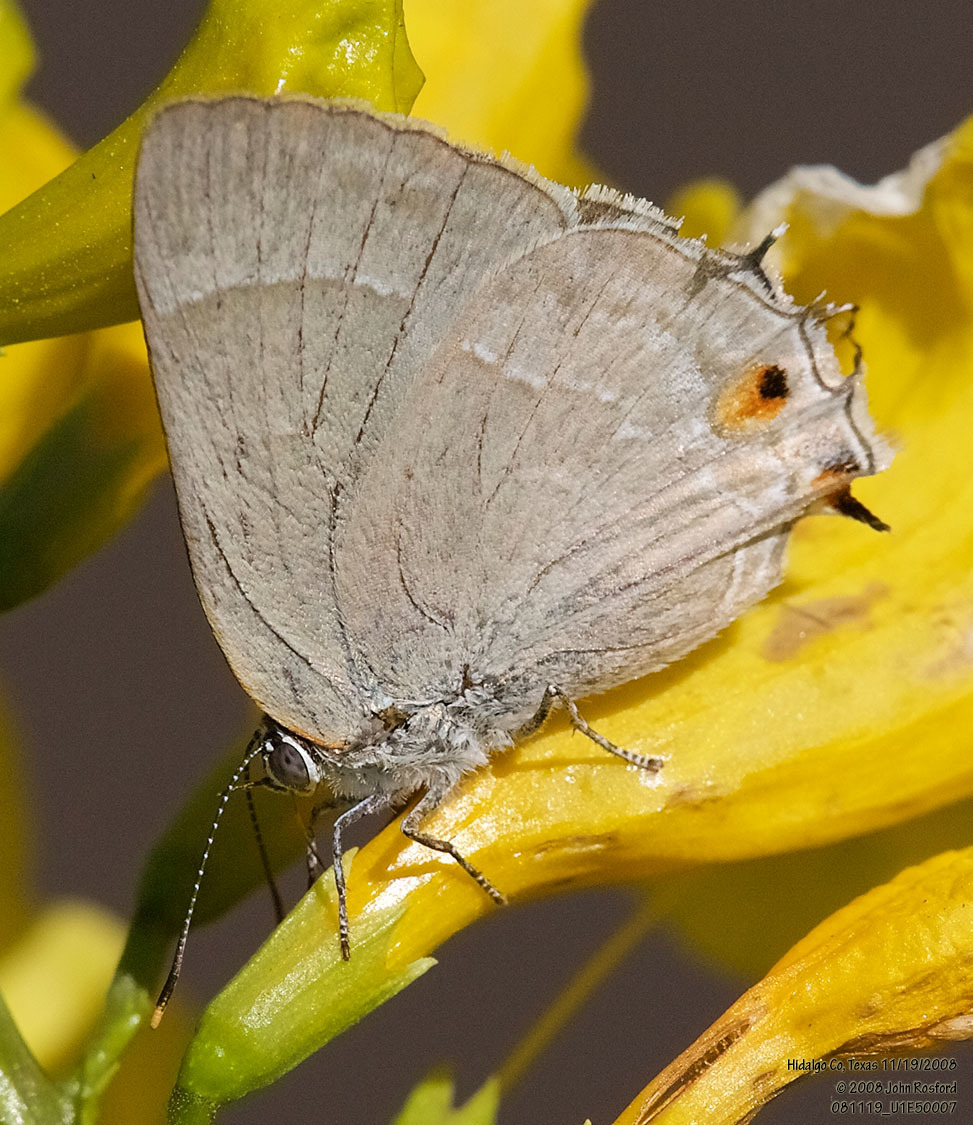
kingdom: Animalia
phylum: Arthropoda
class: Insecta
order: Lepidoptera
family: Lycaenidae
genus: Thecla
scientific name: Thecla marius
